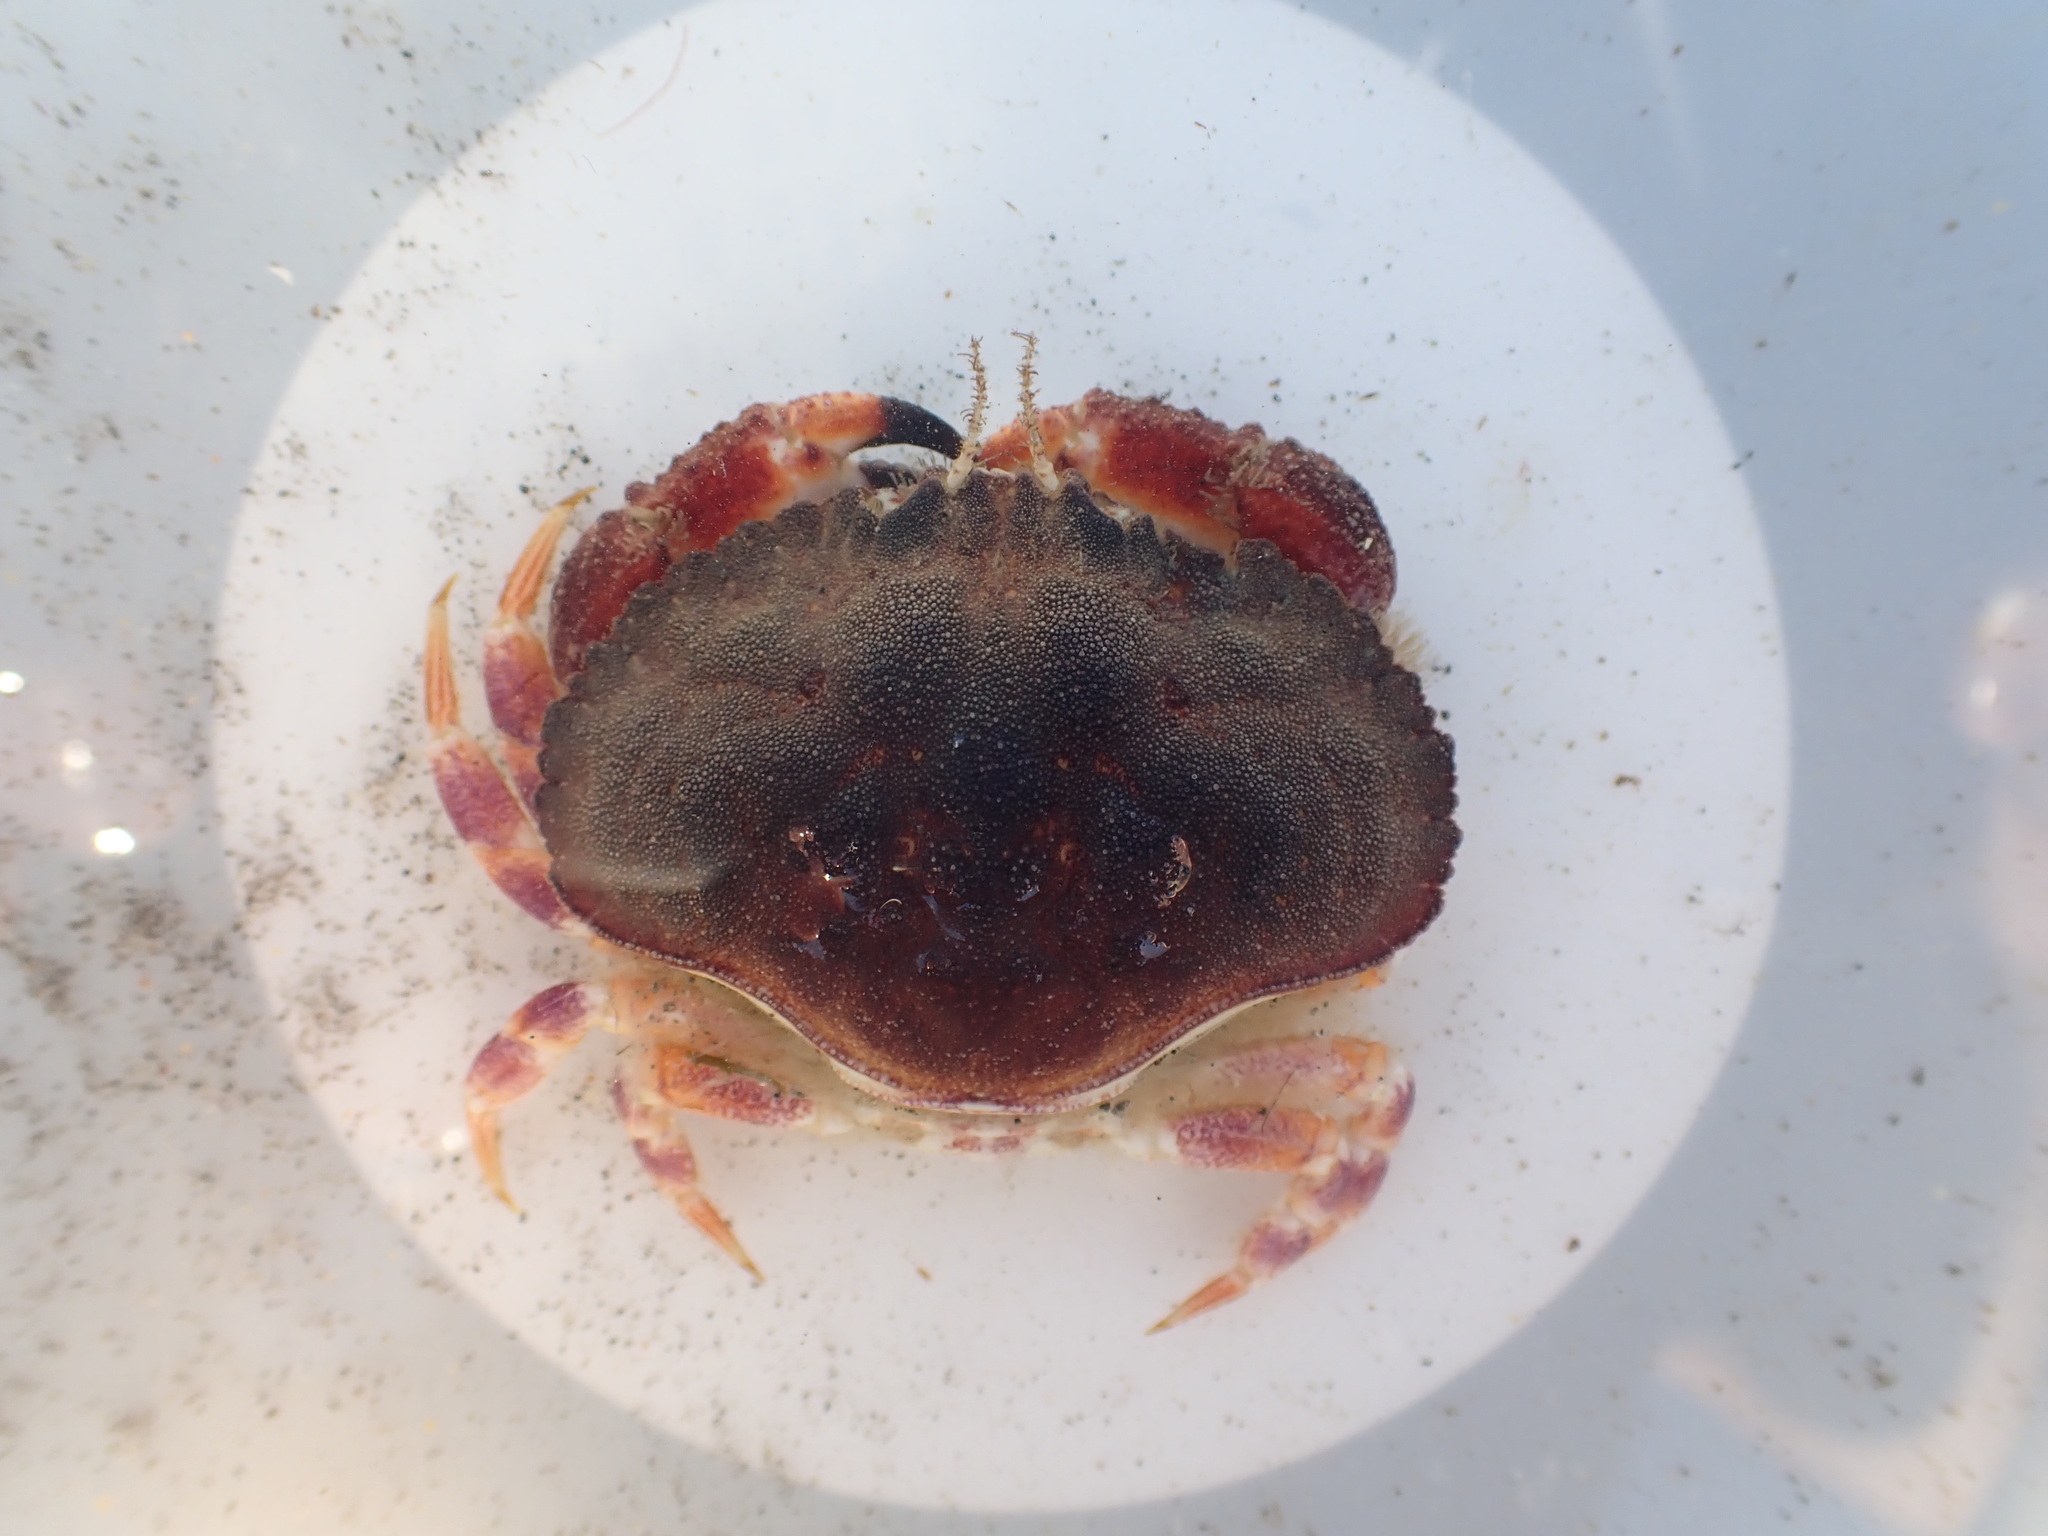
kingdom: Animalia
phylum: Arthropoda
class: Malacostraca
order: Decapoda
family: Cancridae
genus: Metacarcinus
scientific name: Metacarcinus novaezelandiae
